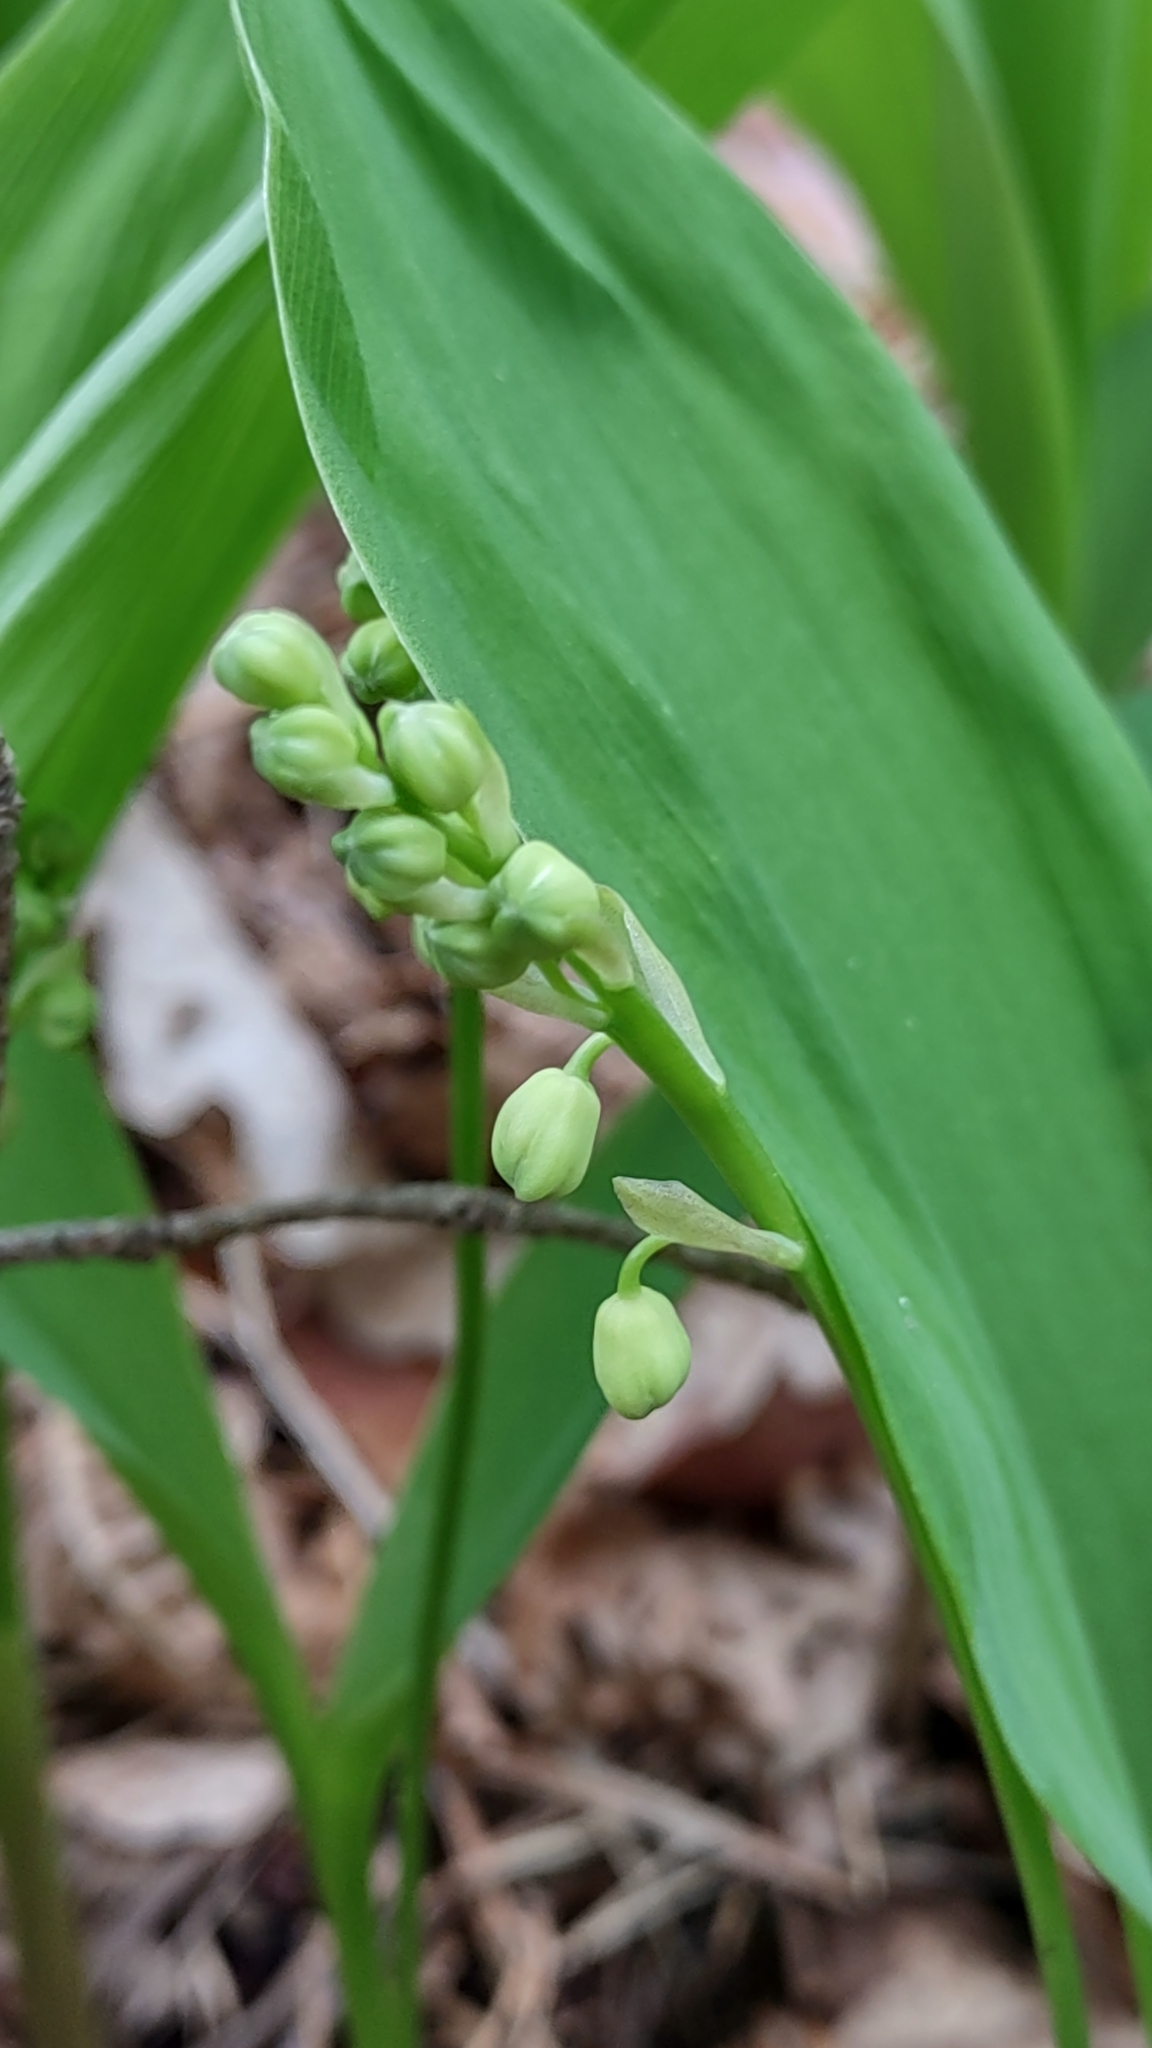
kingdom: Plantae
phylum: Tracheophyta
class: Liliopsida
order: Asparagales
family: Asparagaceae
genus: Convallaria
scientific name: Convallaria majalis
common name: Lily-of-the-valley
